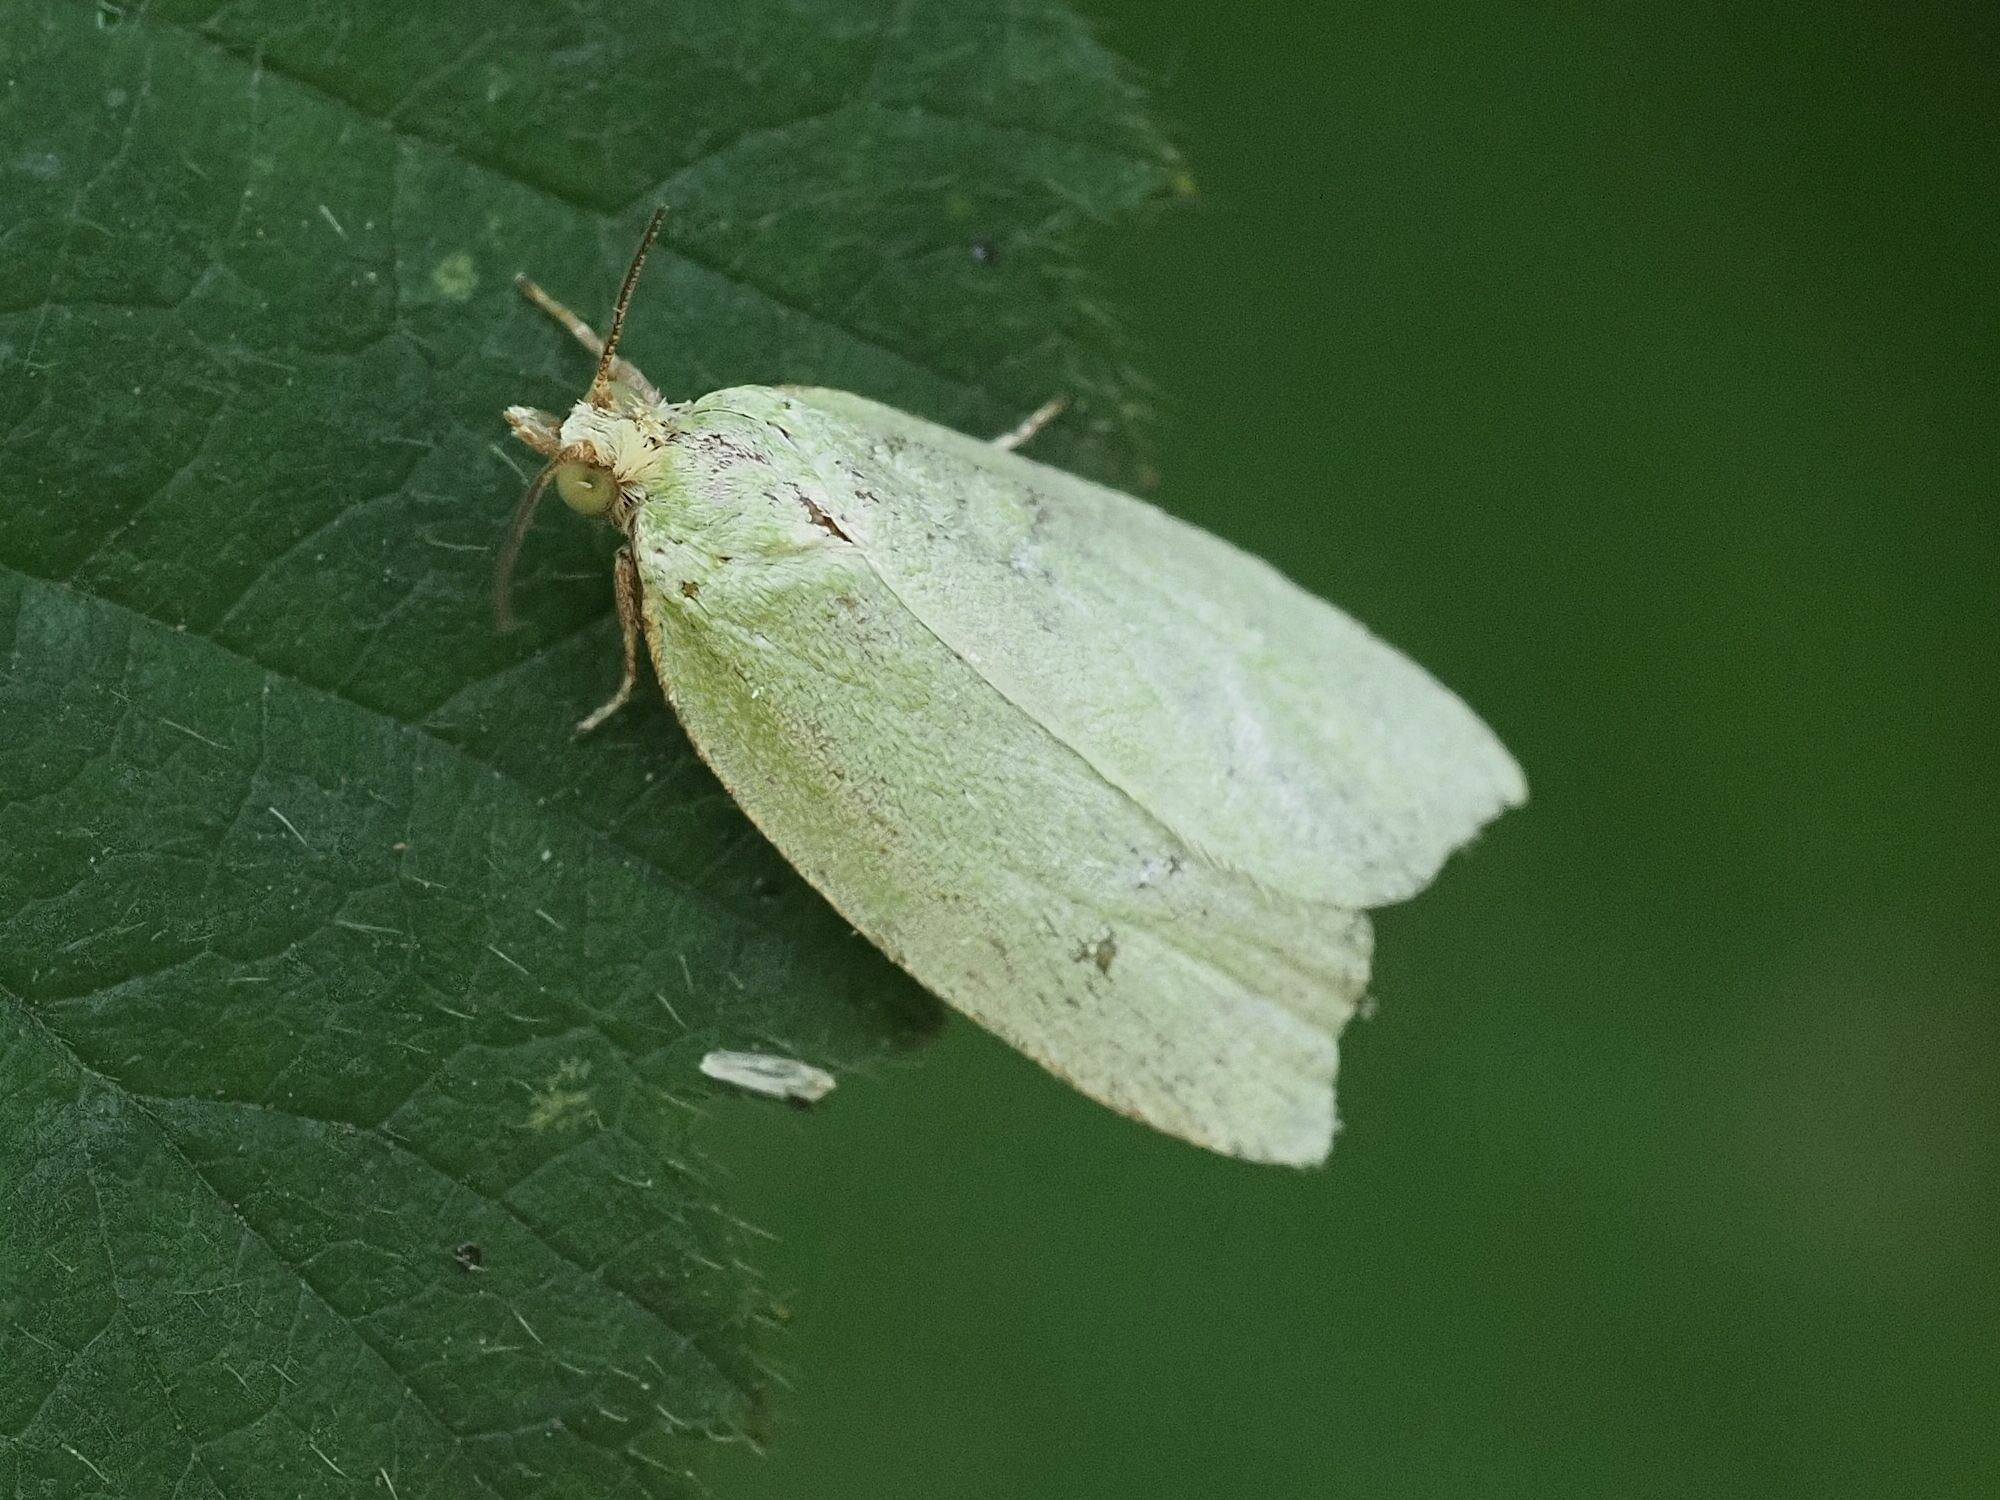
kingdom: Animalia
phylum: Arthropoda
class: Insecta
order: Lepidoptera
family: Tortricidae
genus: Tortrix
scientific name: Tortrix viridana
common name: Green oak tortrix
